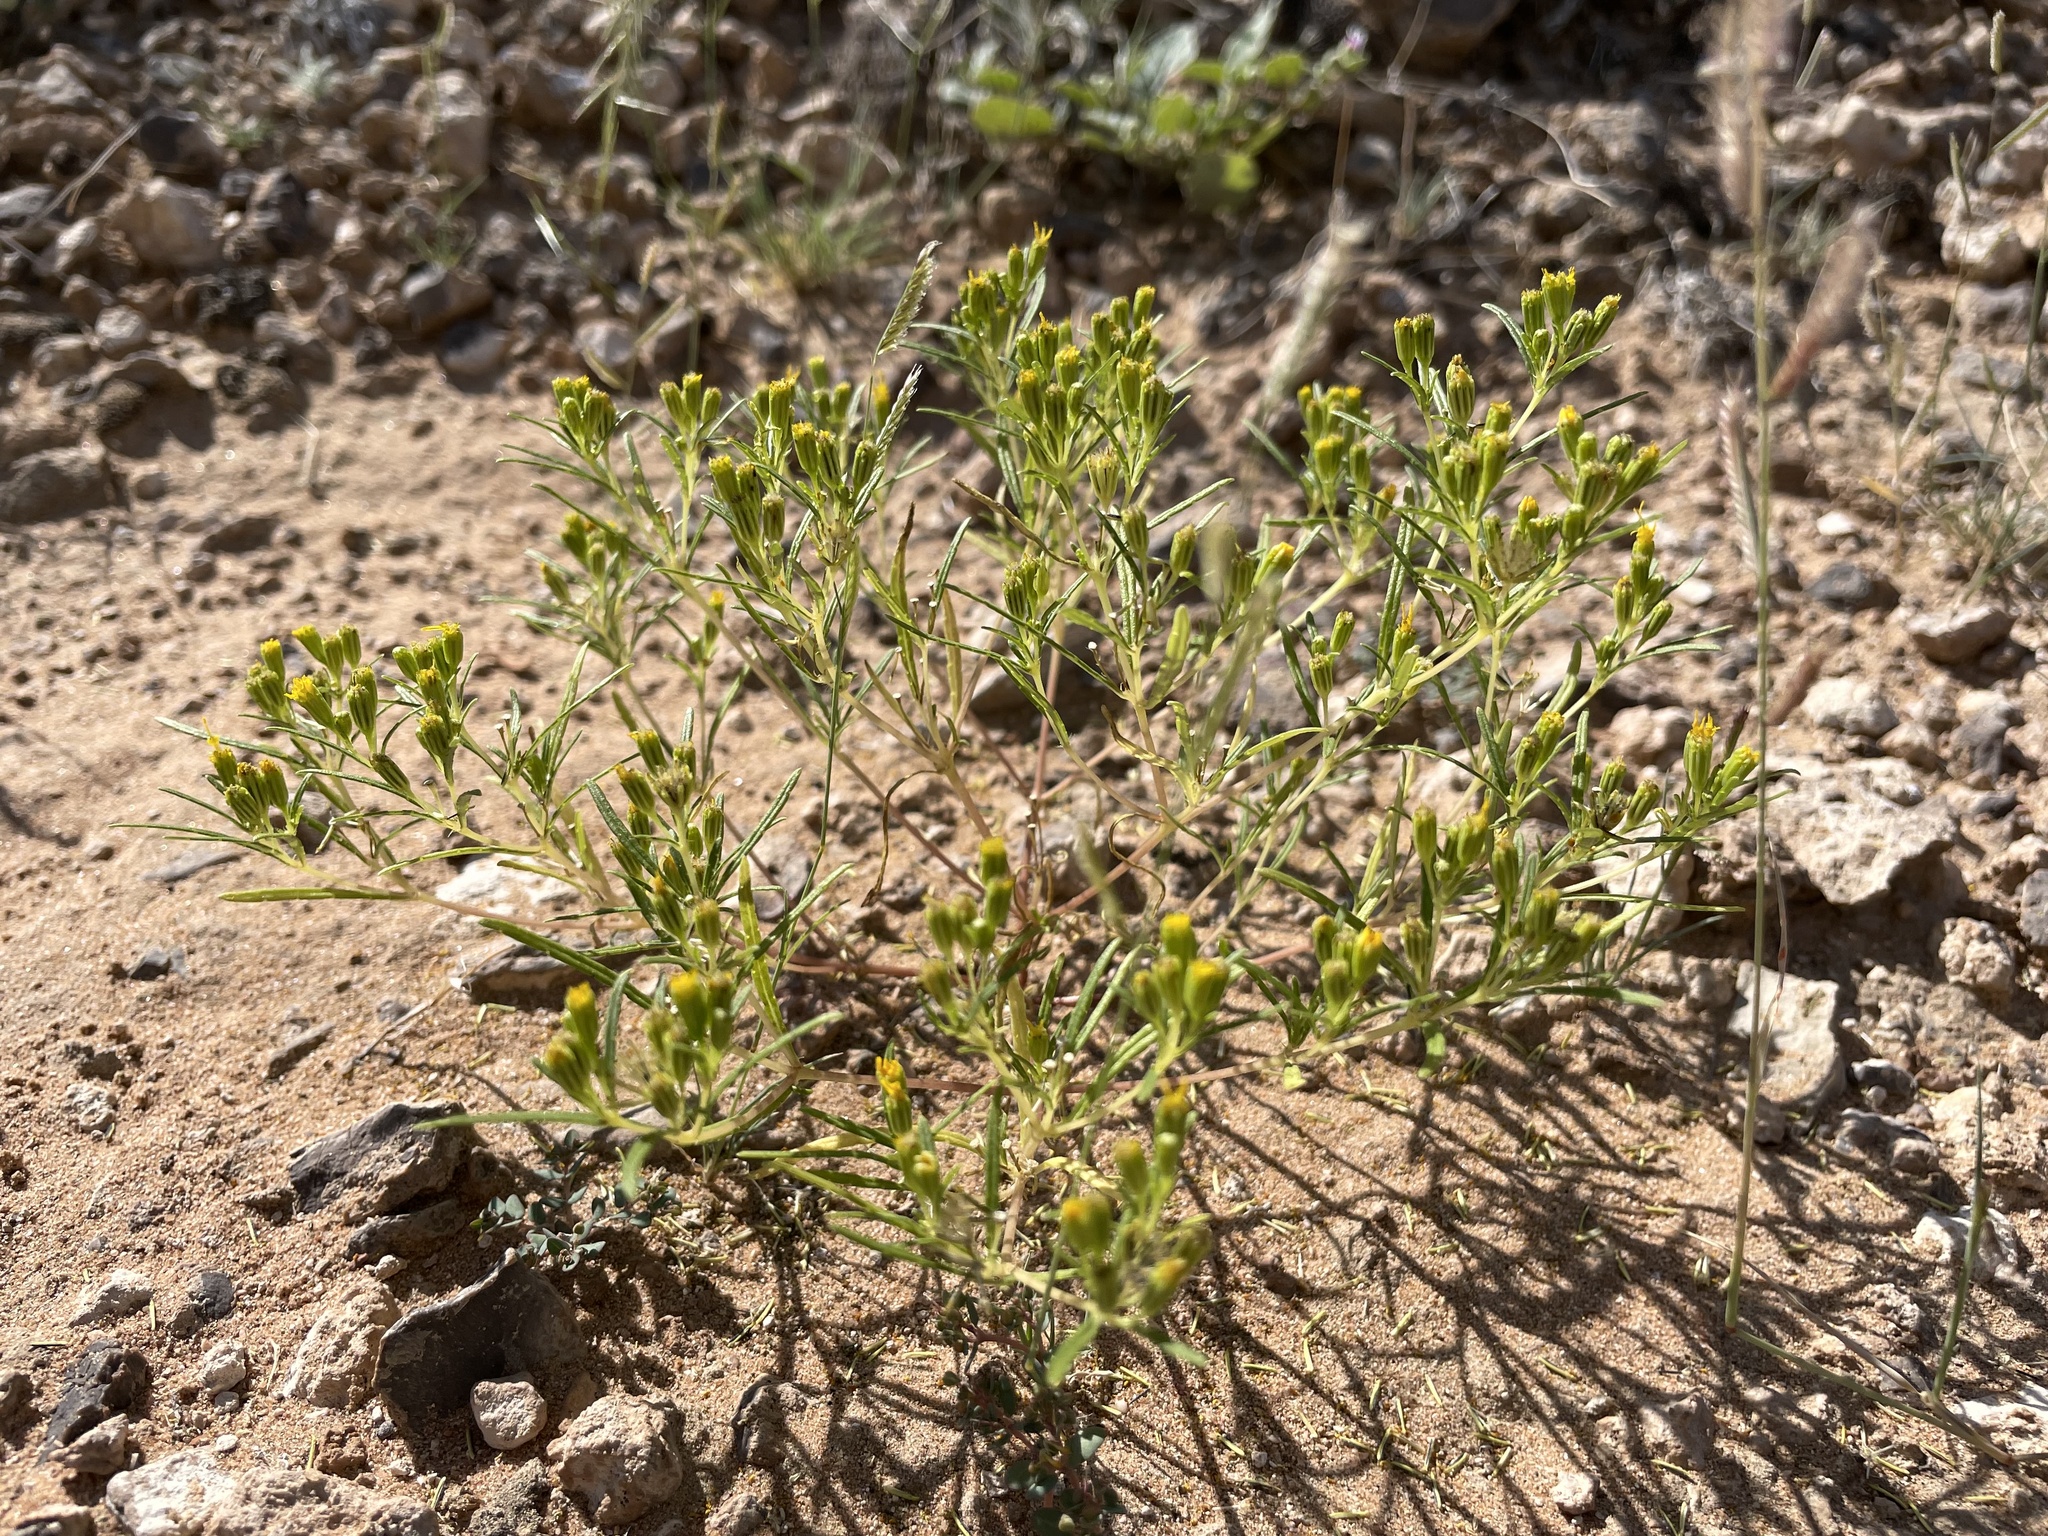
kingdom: Plantae
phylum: Tracheophyta
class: Magnoliopsida
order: Asterales
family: Asteraceae
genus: Pectis
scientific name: Pectis papposa
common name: Many-bristle chinchweed
